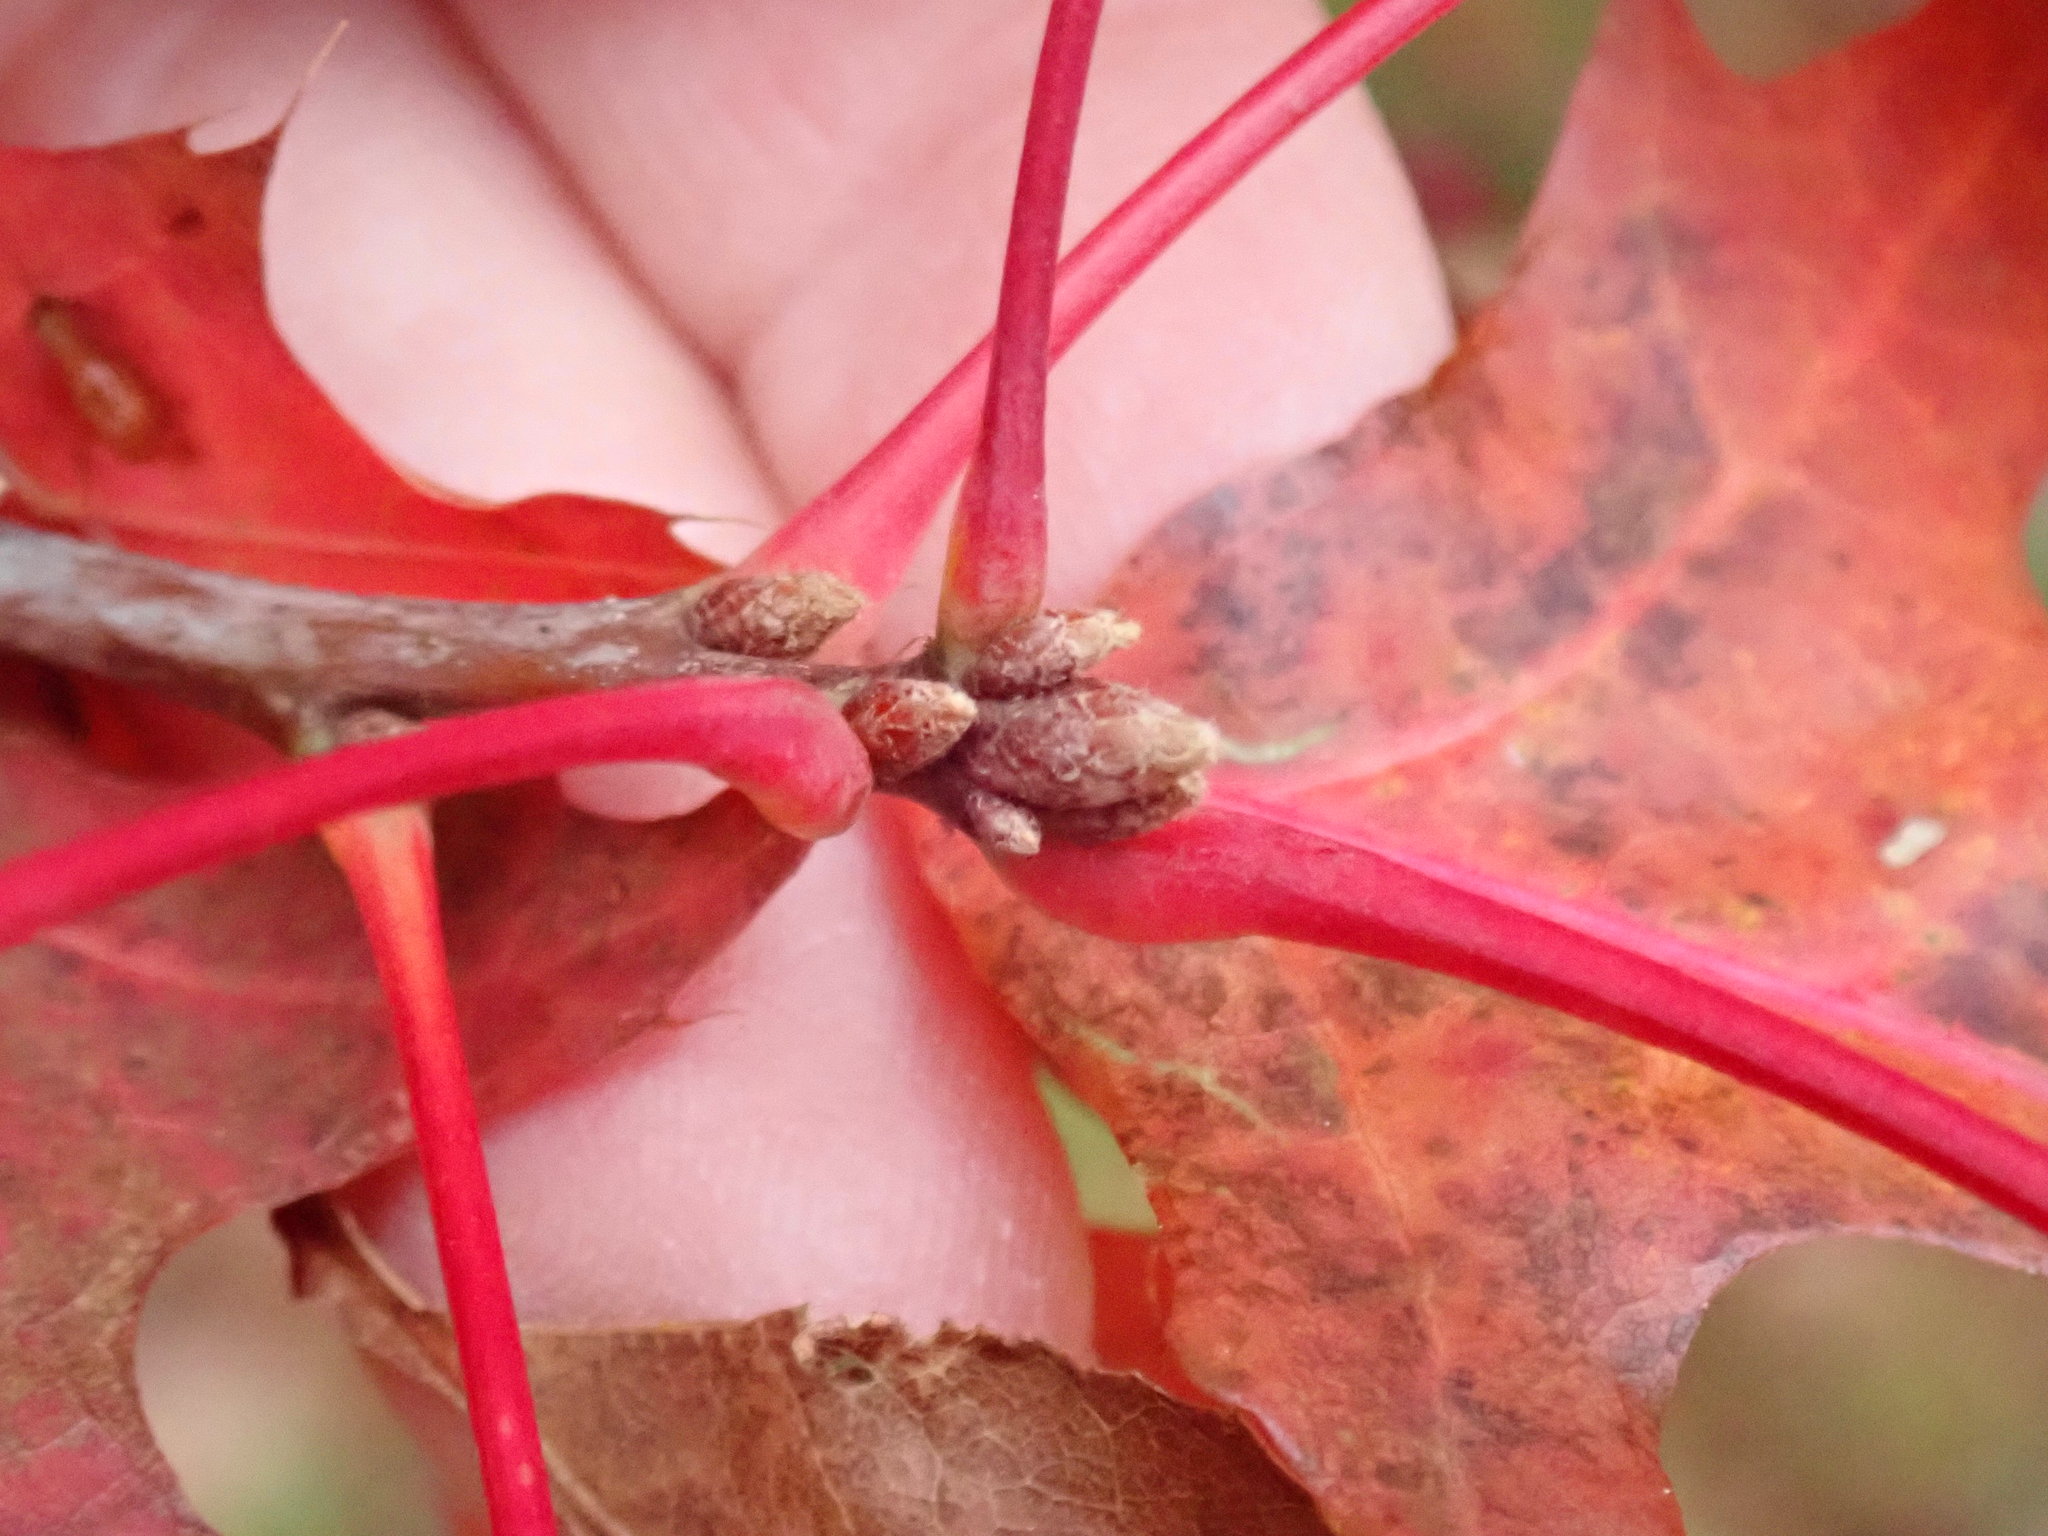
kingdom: Plantae
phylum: Tracheophyta
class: Magnoliopsida
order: Fagales
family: Fagaceae
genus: Quercus
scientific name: Quercus coccinea
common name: Scarlet oak
